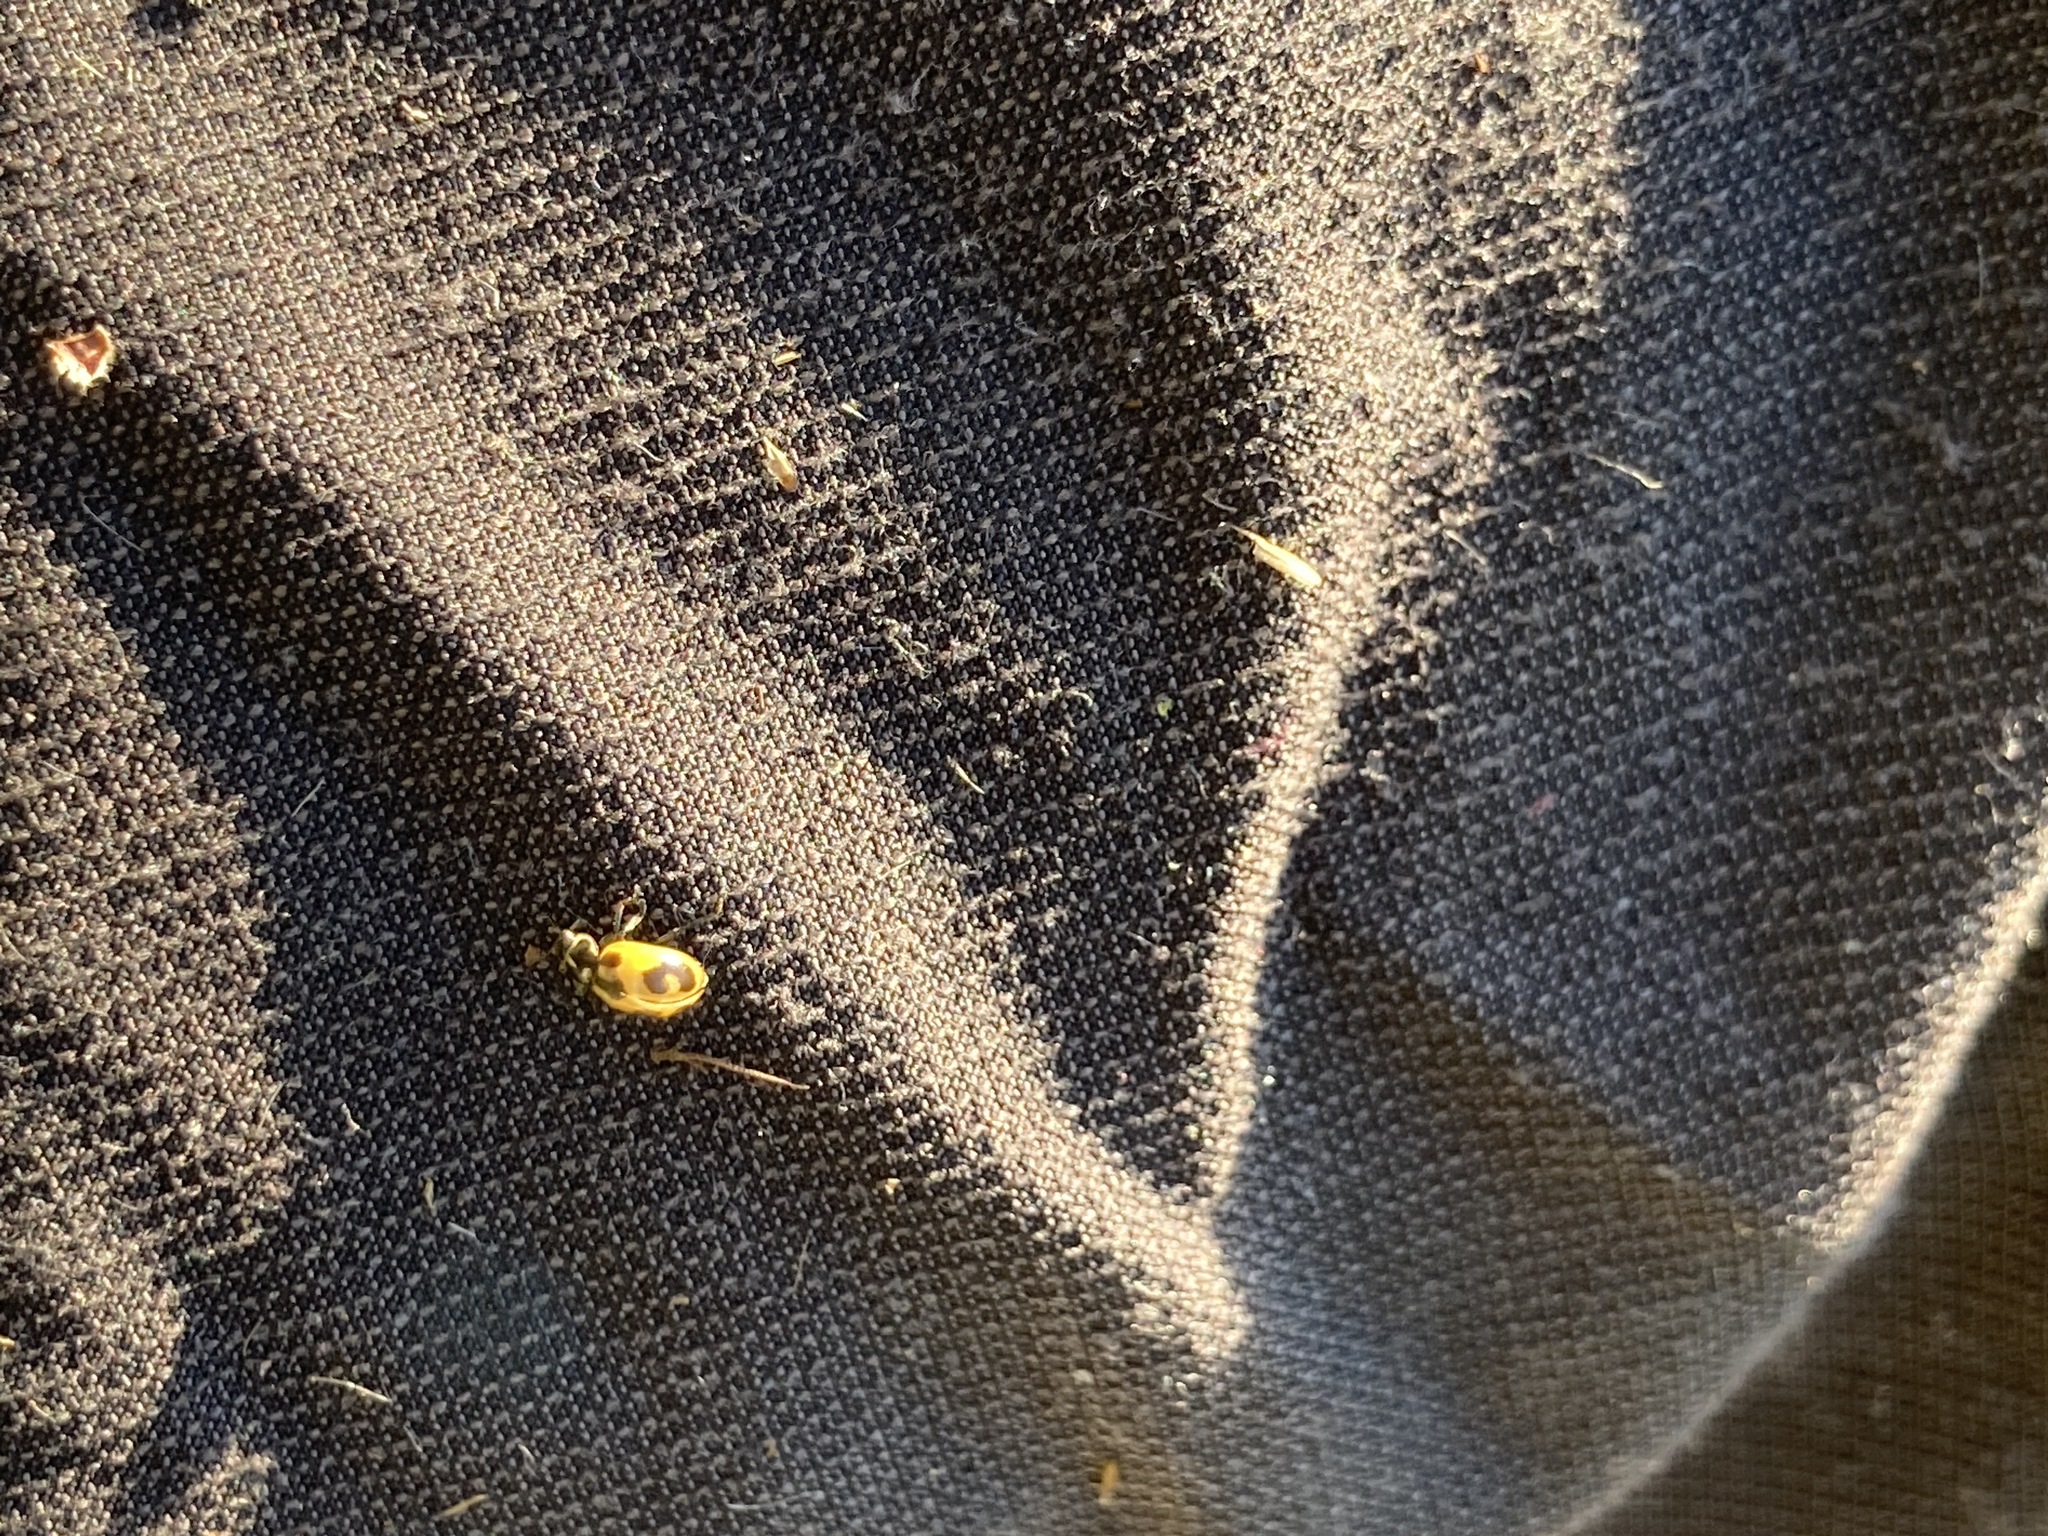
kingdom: Animalia
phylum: Arthropoda
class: Insecta
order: Coleoptera
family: Coccinellidae
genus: Hippodamia
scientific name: Hippodamia parenthesis
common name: Parenthesis lady beetle
